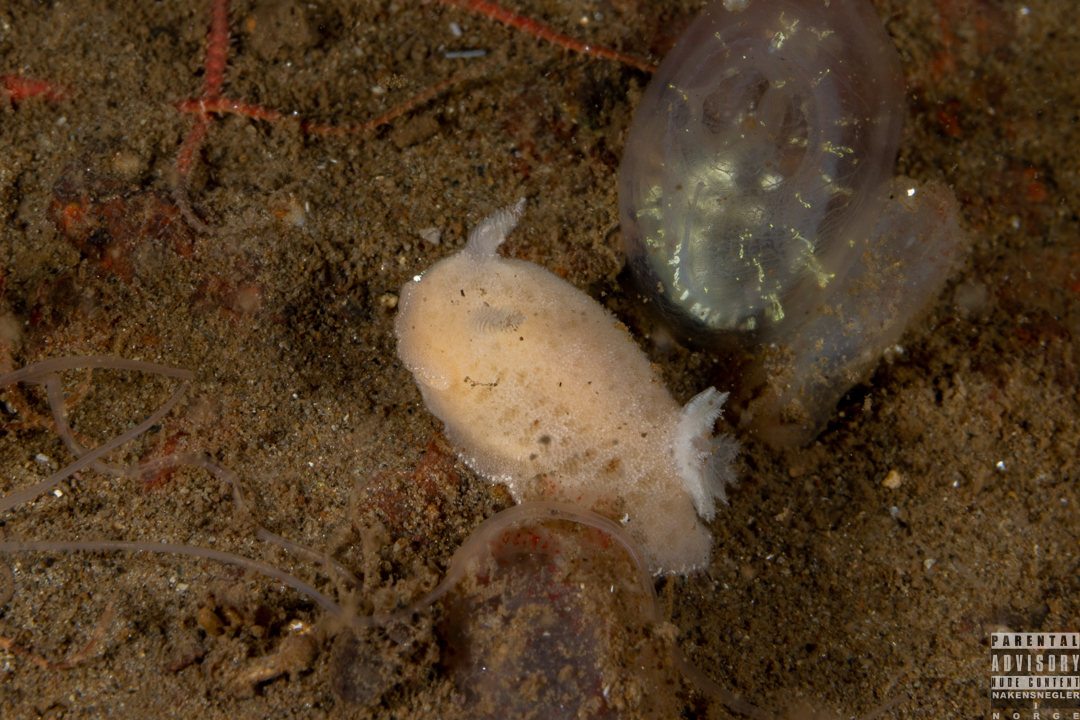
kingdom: Animalia
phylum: Mollusca
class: Gastropoda
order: Nudibranchia
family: Discodorididae
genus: Jorunna
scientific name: Jorunna tomentosa
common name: Grey sea slug
